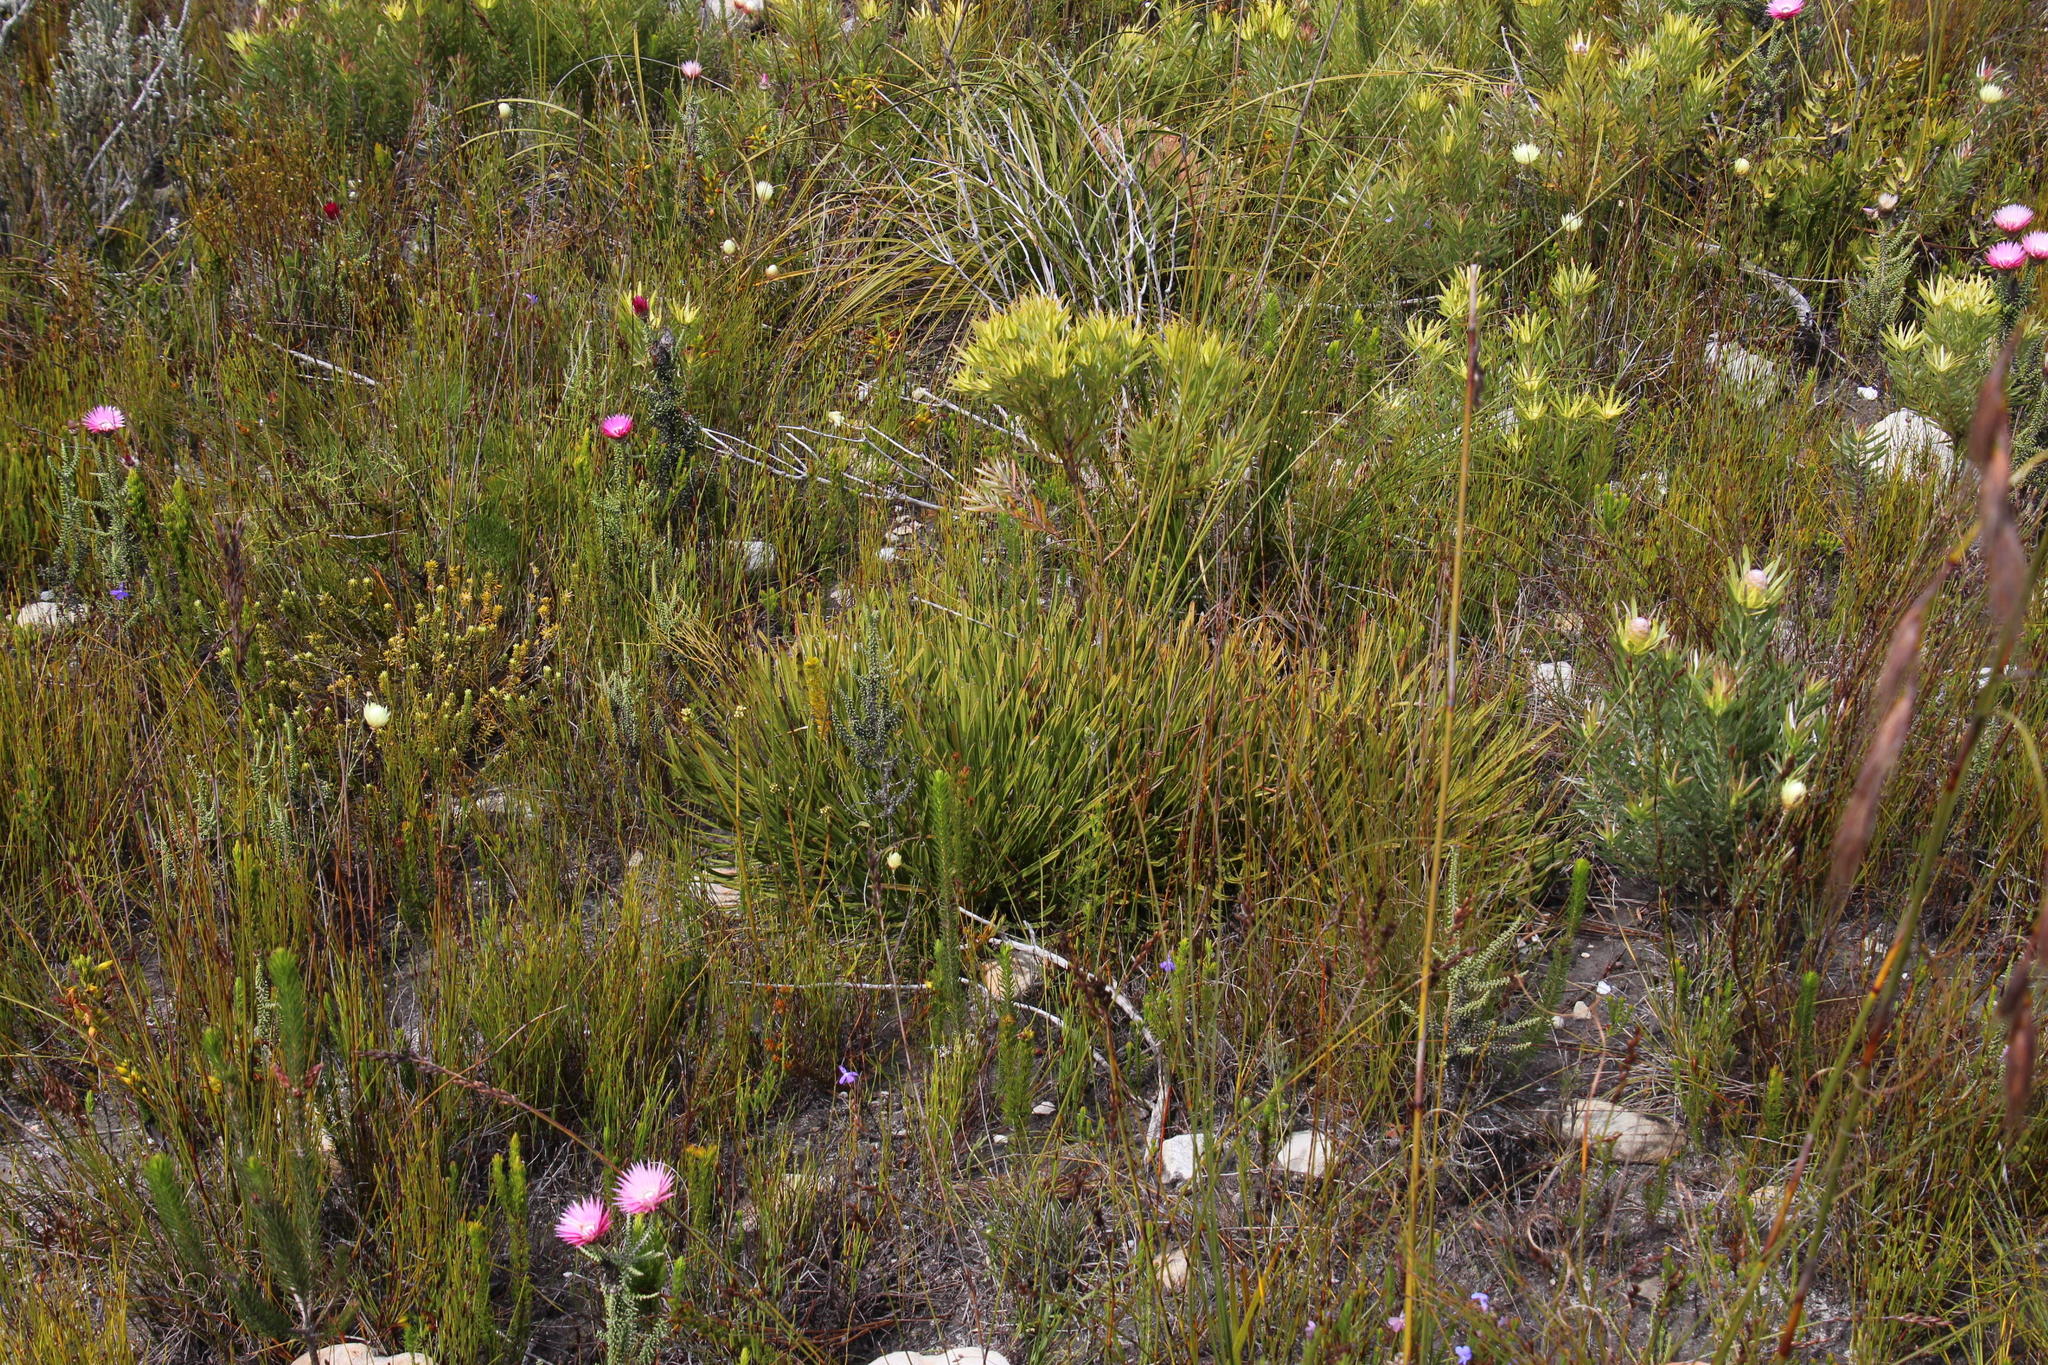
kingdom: Plantae
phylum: Tracheophyta
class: Magnoliopsida
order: Proteales
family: Proteaceae
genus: Protea
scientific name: Protea scabra
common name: Sandpaper-leaf sugarbush
